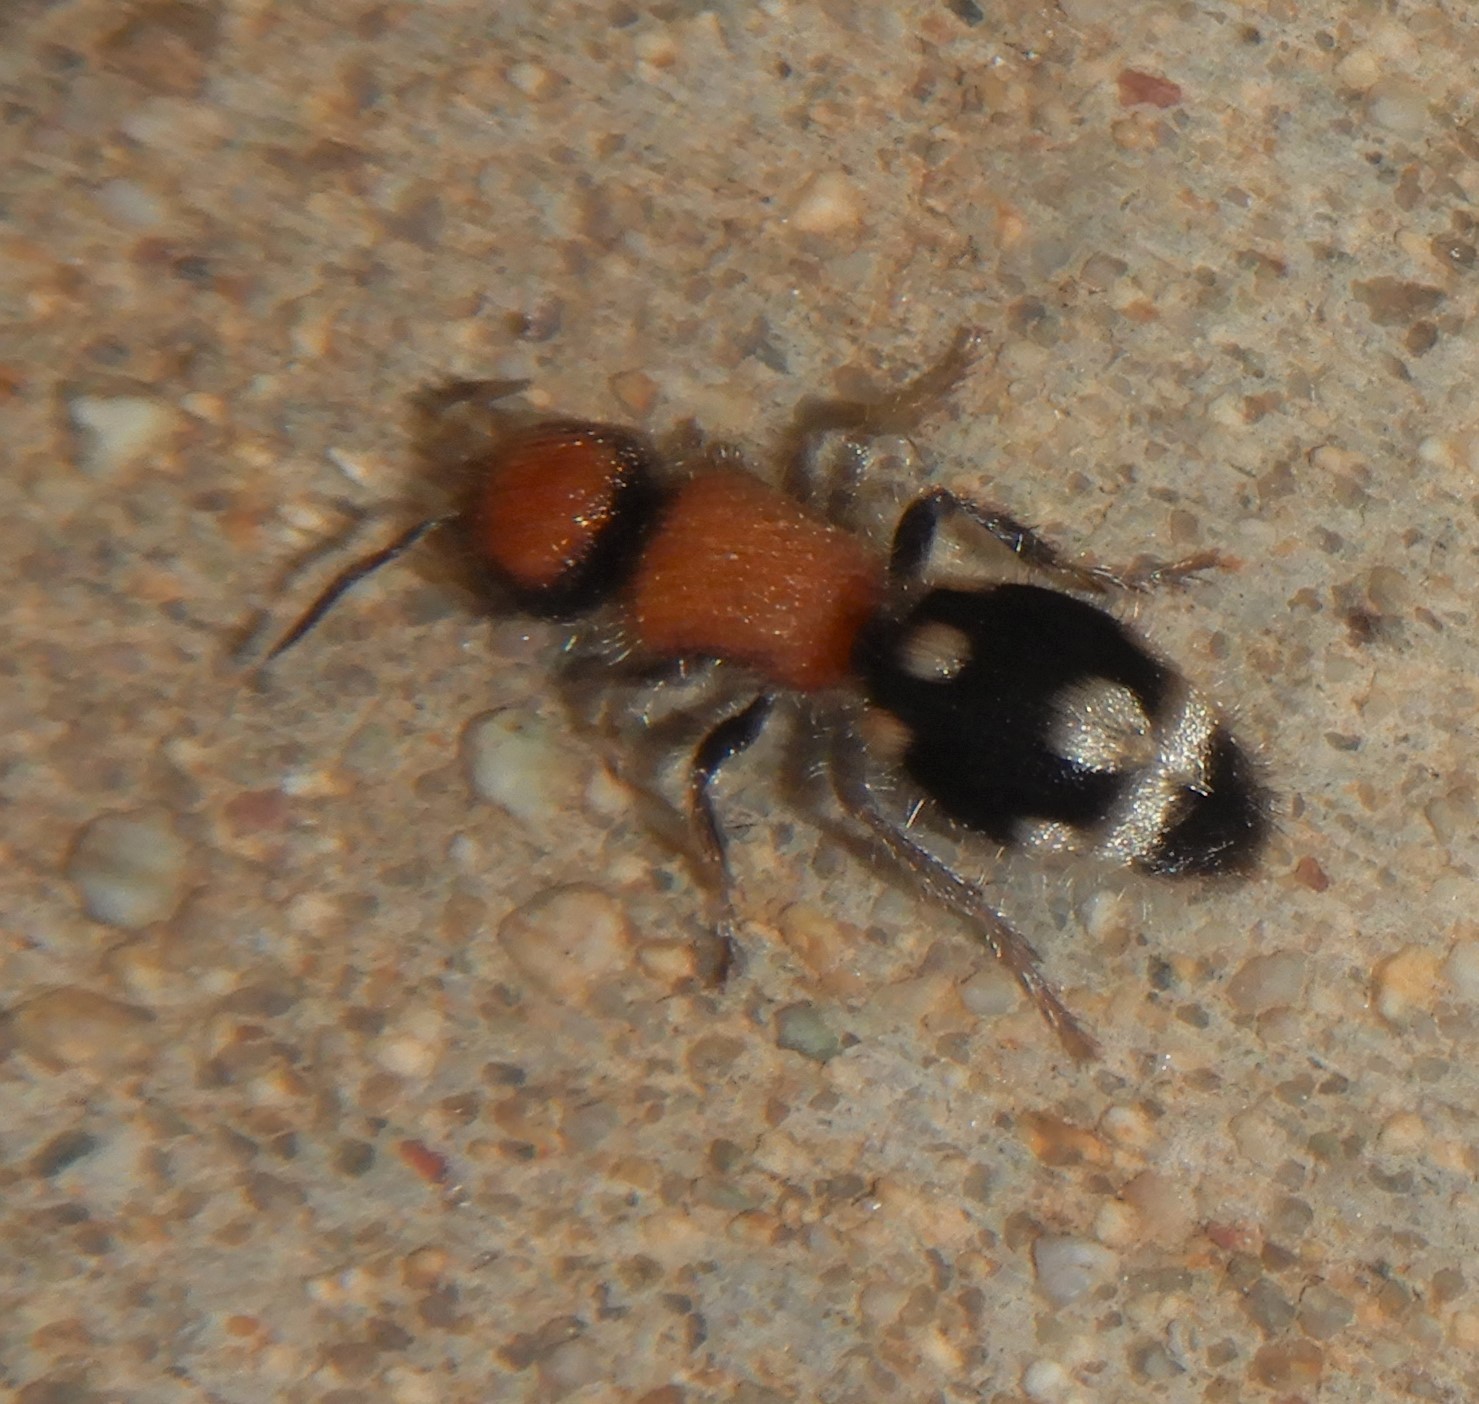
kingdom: Animalia
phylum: Arthropoda
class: Insecta
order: Hymenoptera
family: Mutillidae
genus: Ronisia
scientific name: Ronisia brutia
